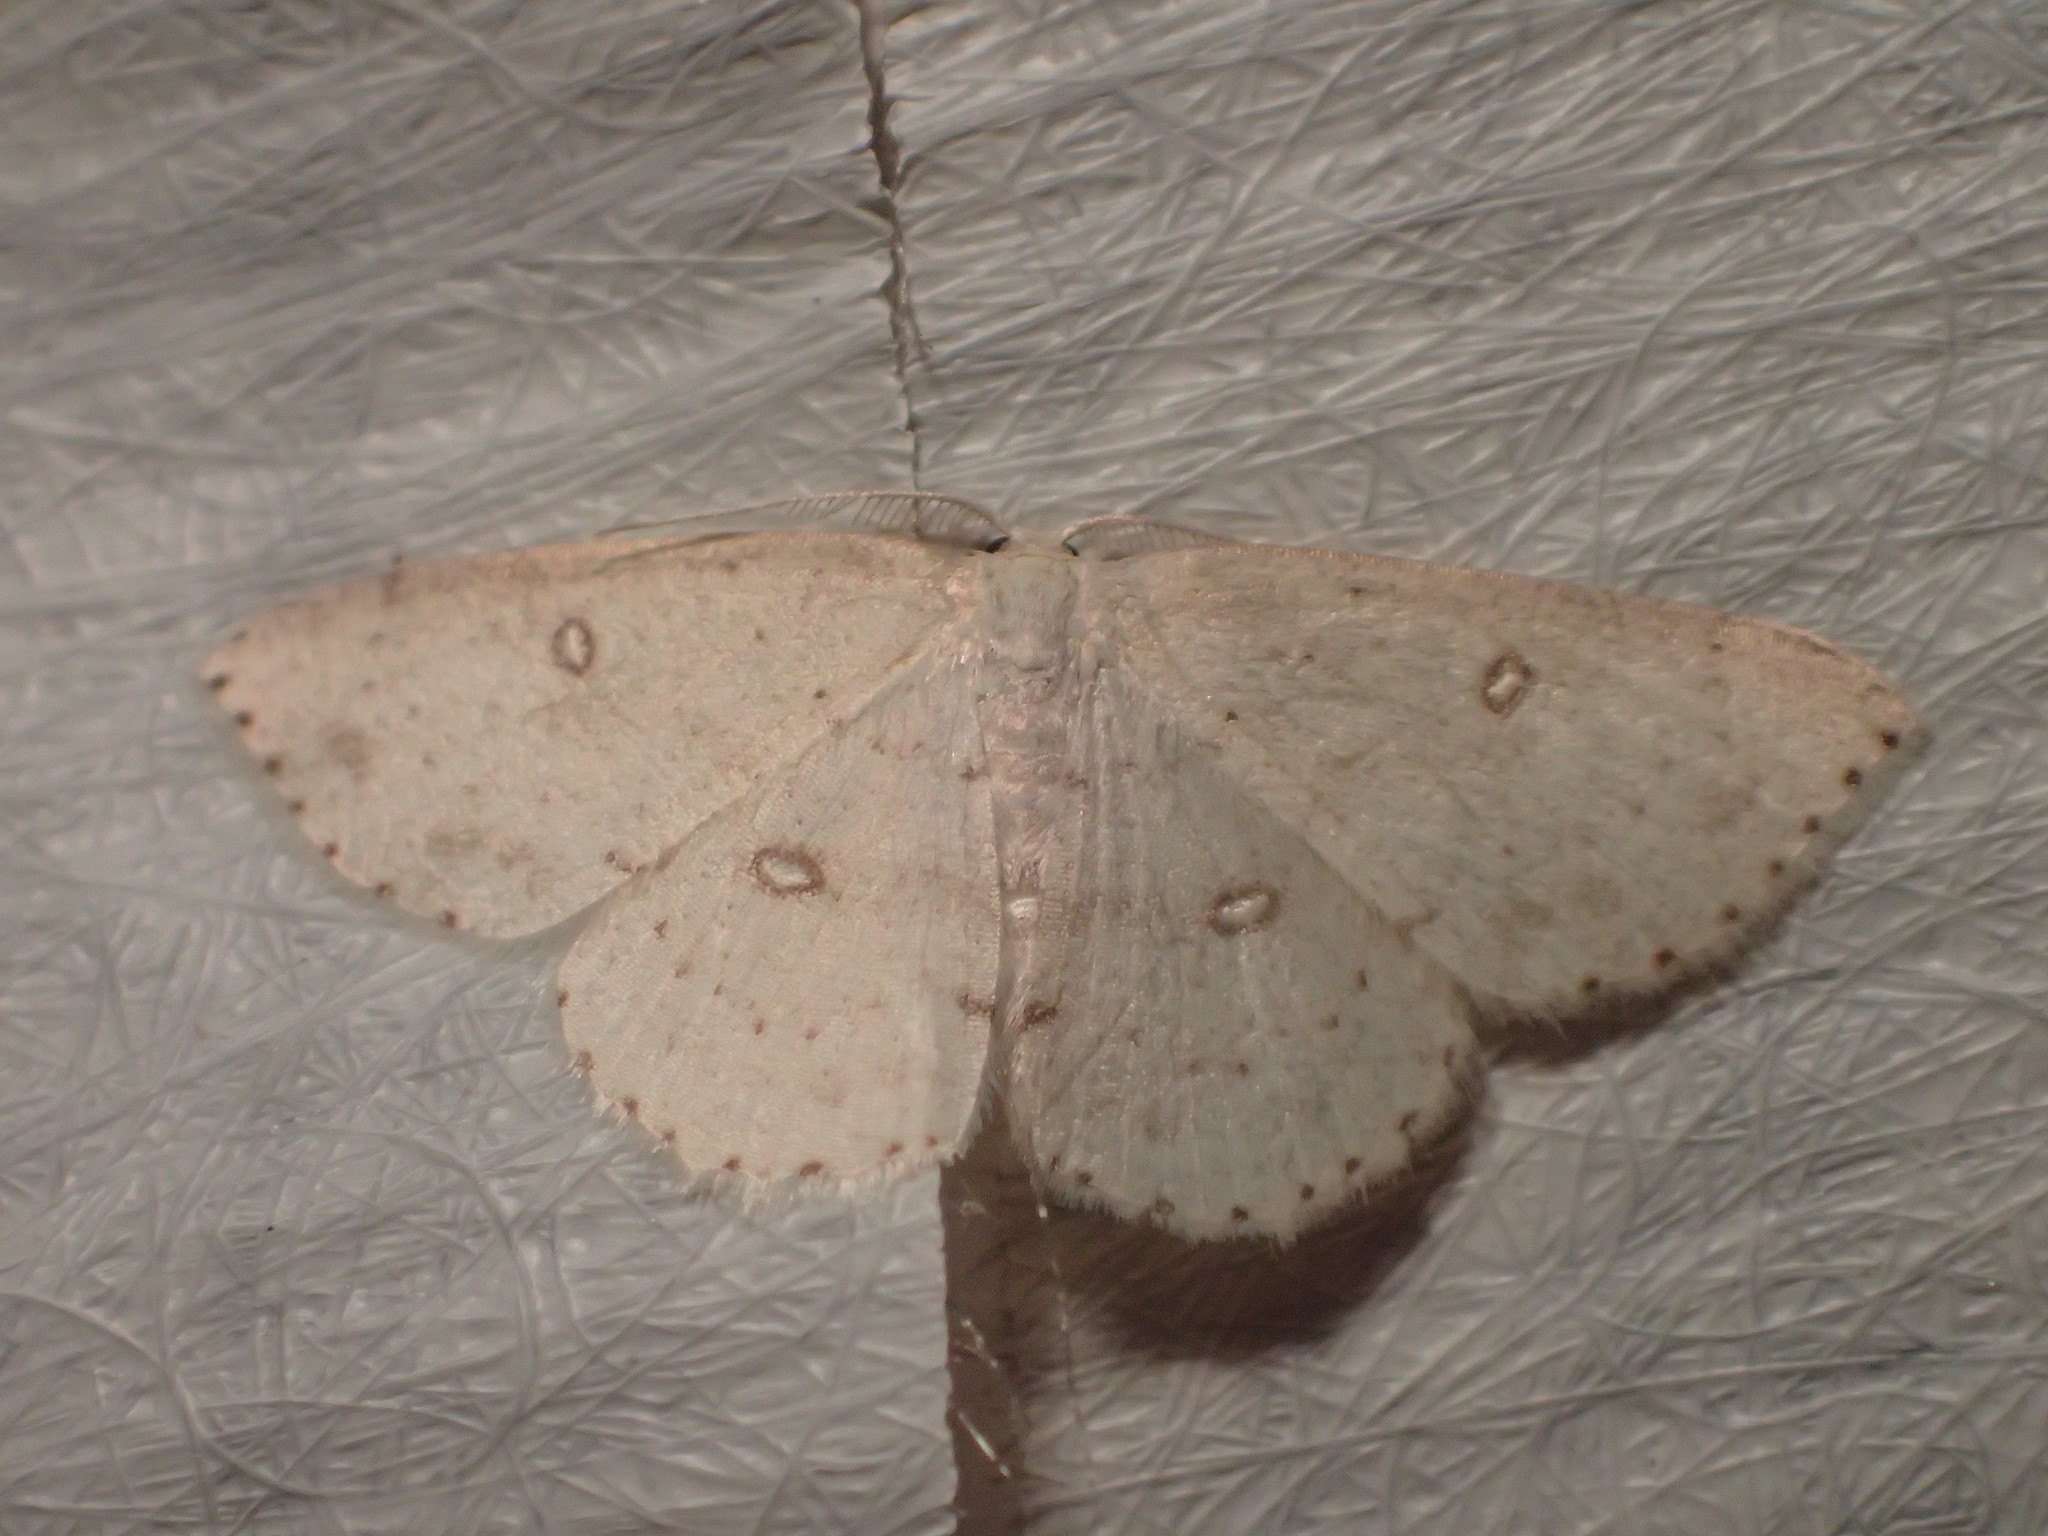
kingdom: Animalia
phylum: Arthropoda
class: Insecta
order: Lepidoptera
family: Geometridae
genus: Cyclophora
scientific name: Cyclophora pendulinaria
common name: Sweet fern geometer
